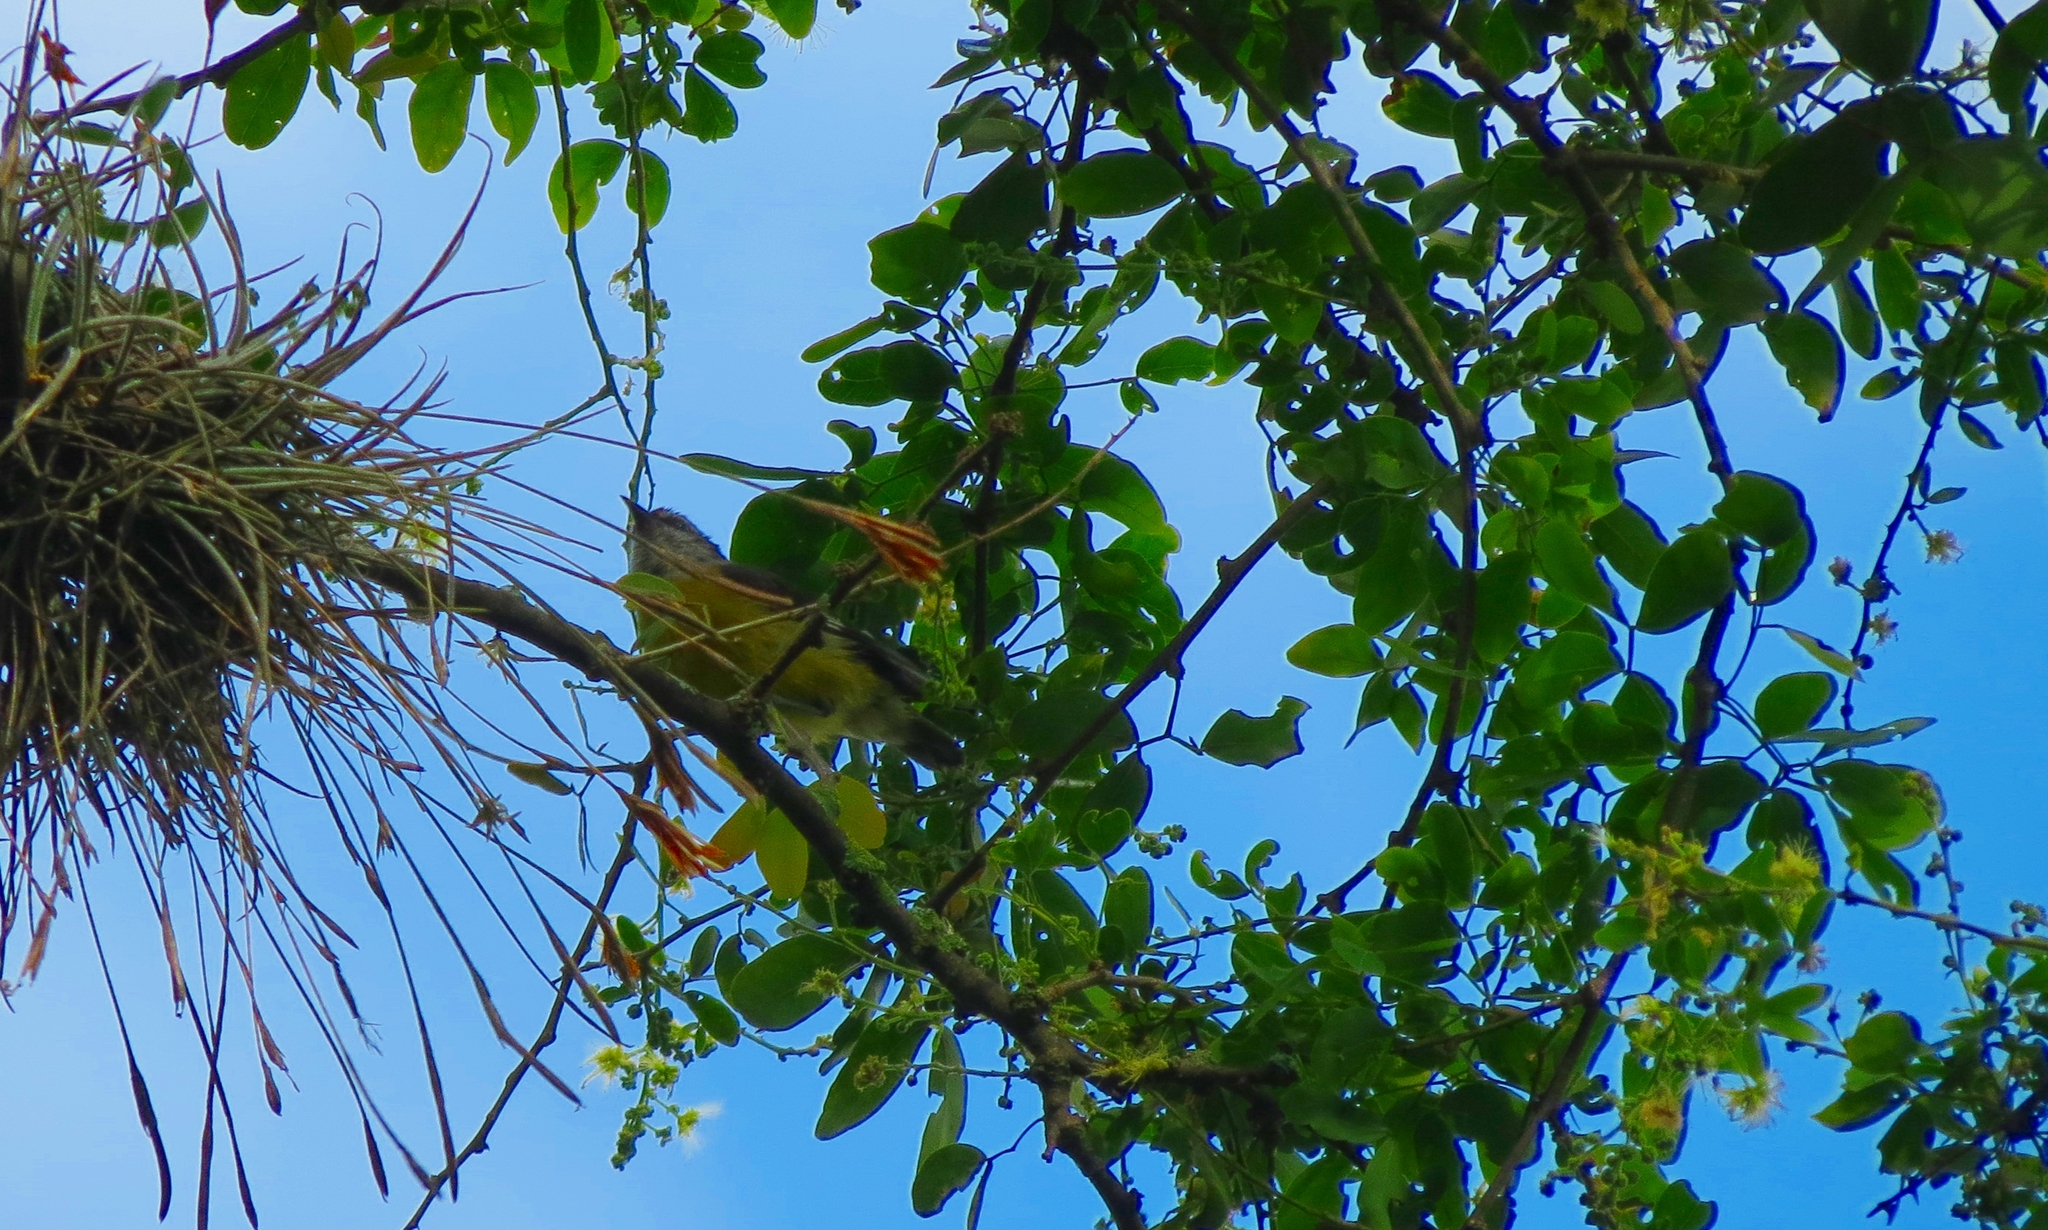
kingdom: Animalia
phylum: Chordata
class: Aves
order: Passeriformes
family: Thraupidae
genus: Coereba
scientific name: Coereba flaveola
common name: Bananaquit
